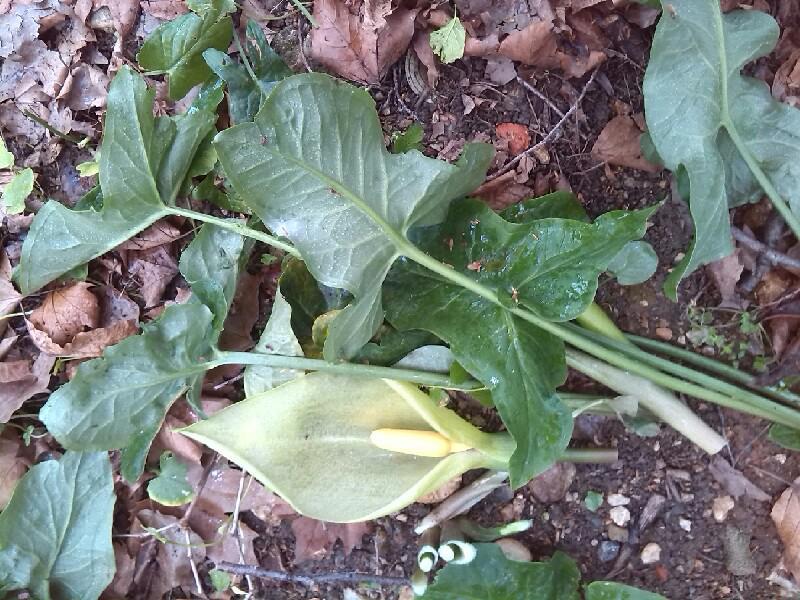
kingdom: Plantae
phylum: Tracheophyta
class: Liliopsida
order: Alismatales
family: Araceae
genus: Arum
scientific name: Arum italicum
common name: Italian lords-and-ladies
